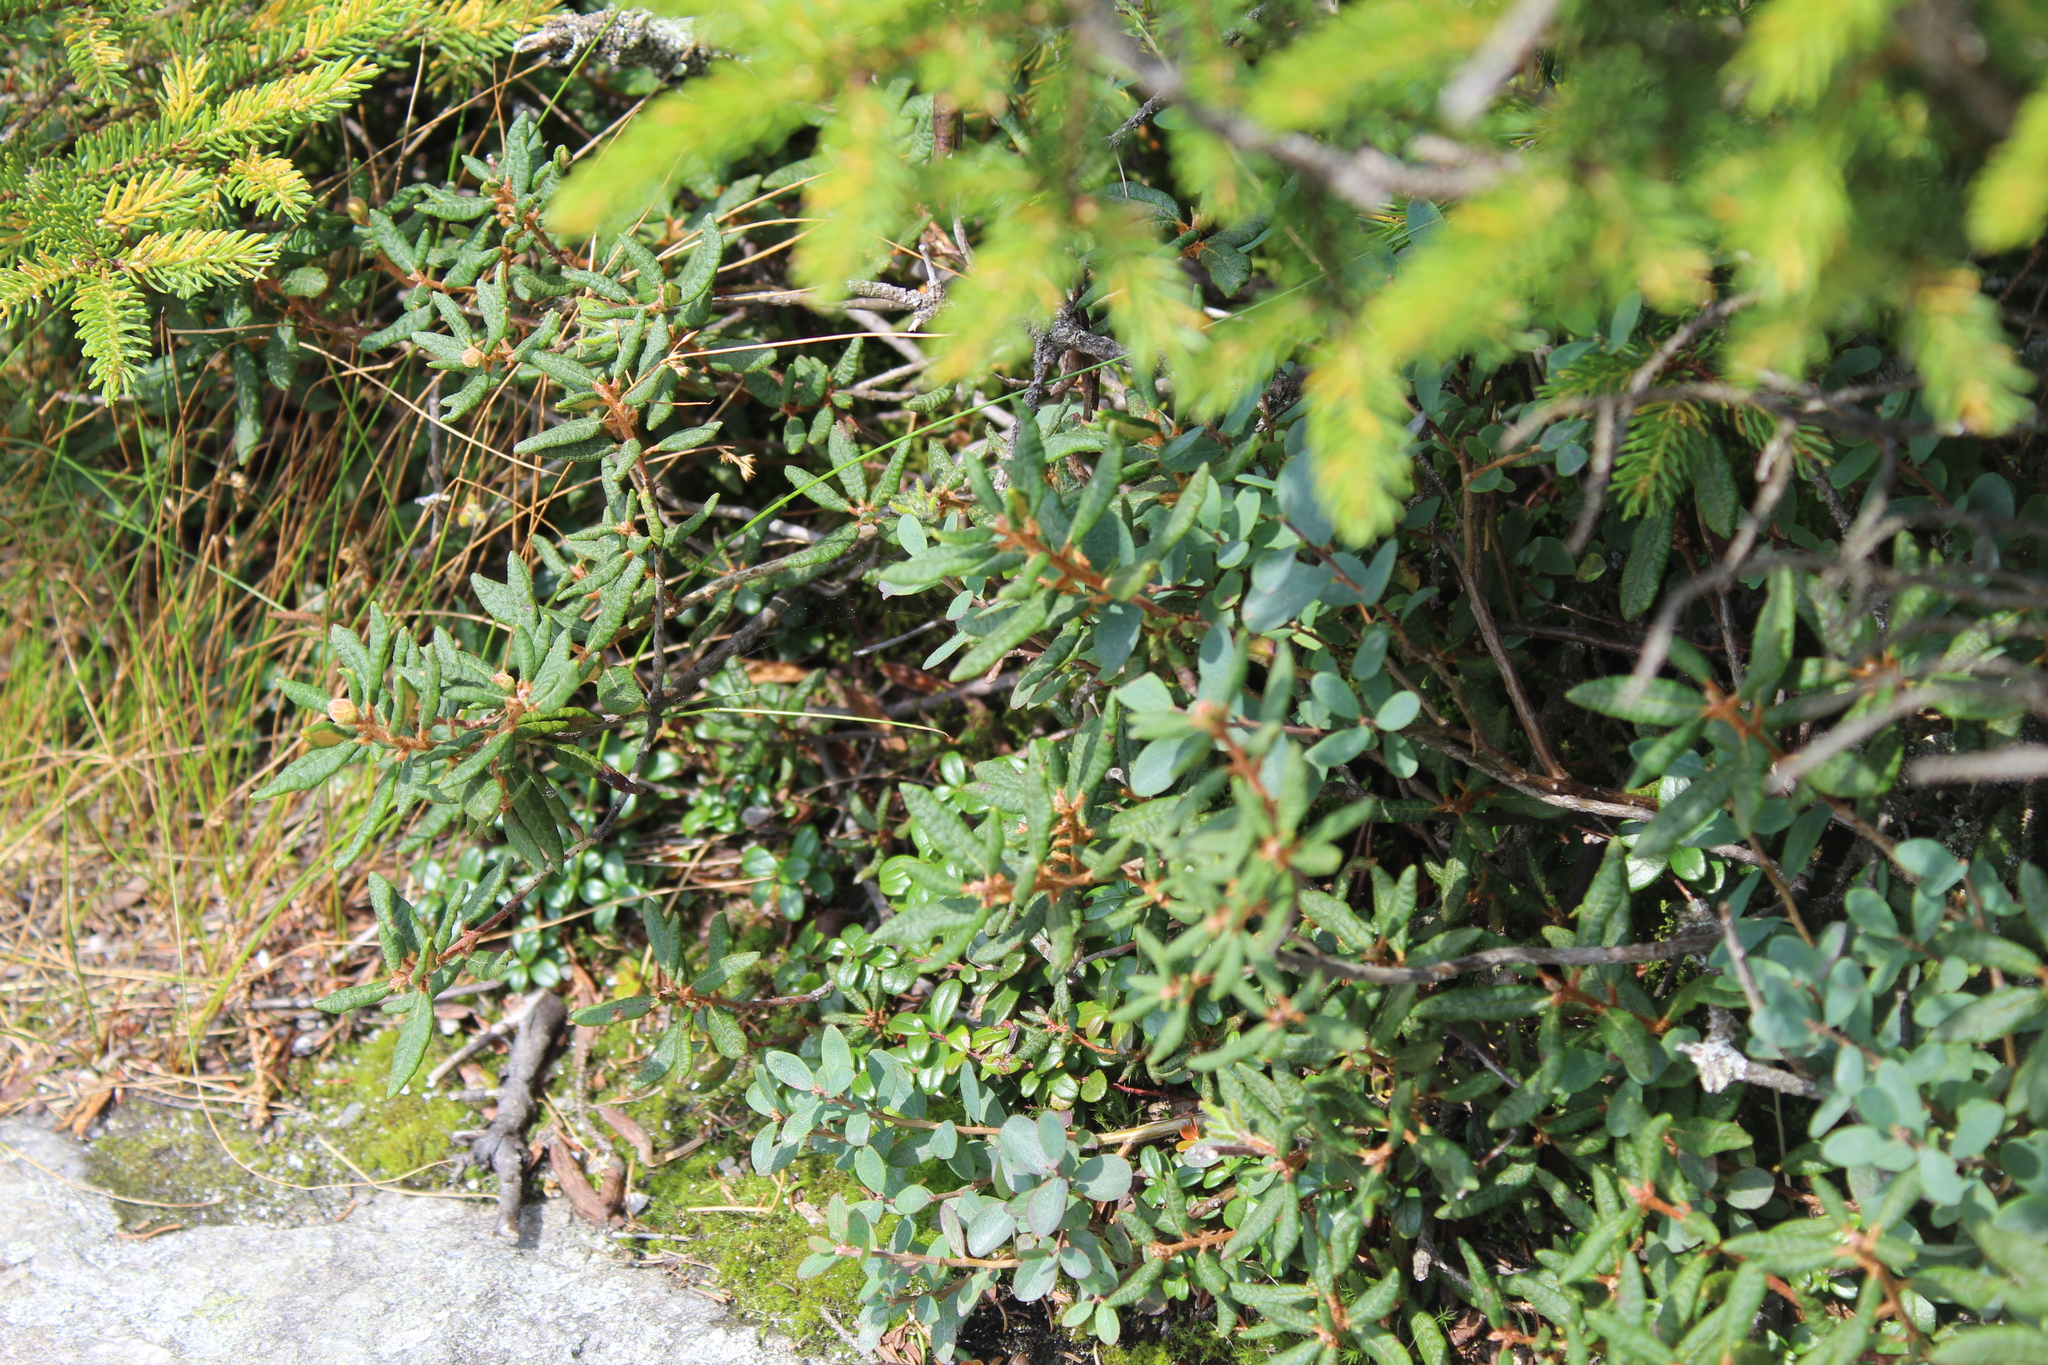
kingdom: Plantae
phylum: Tracheophyta
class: Magnoliopsida
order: Ericales
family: Ericaceae
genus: Rhododendron
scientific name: Rhododendron groenlandicum
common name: Bog labrador tea
